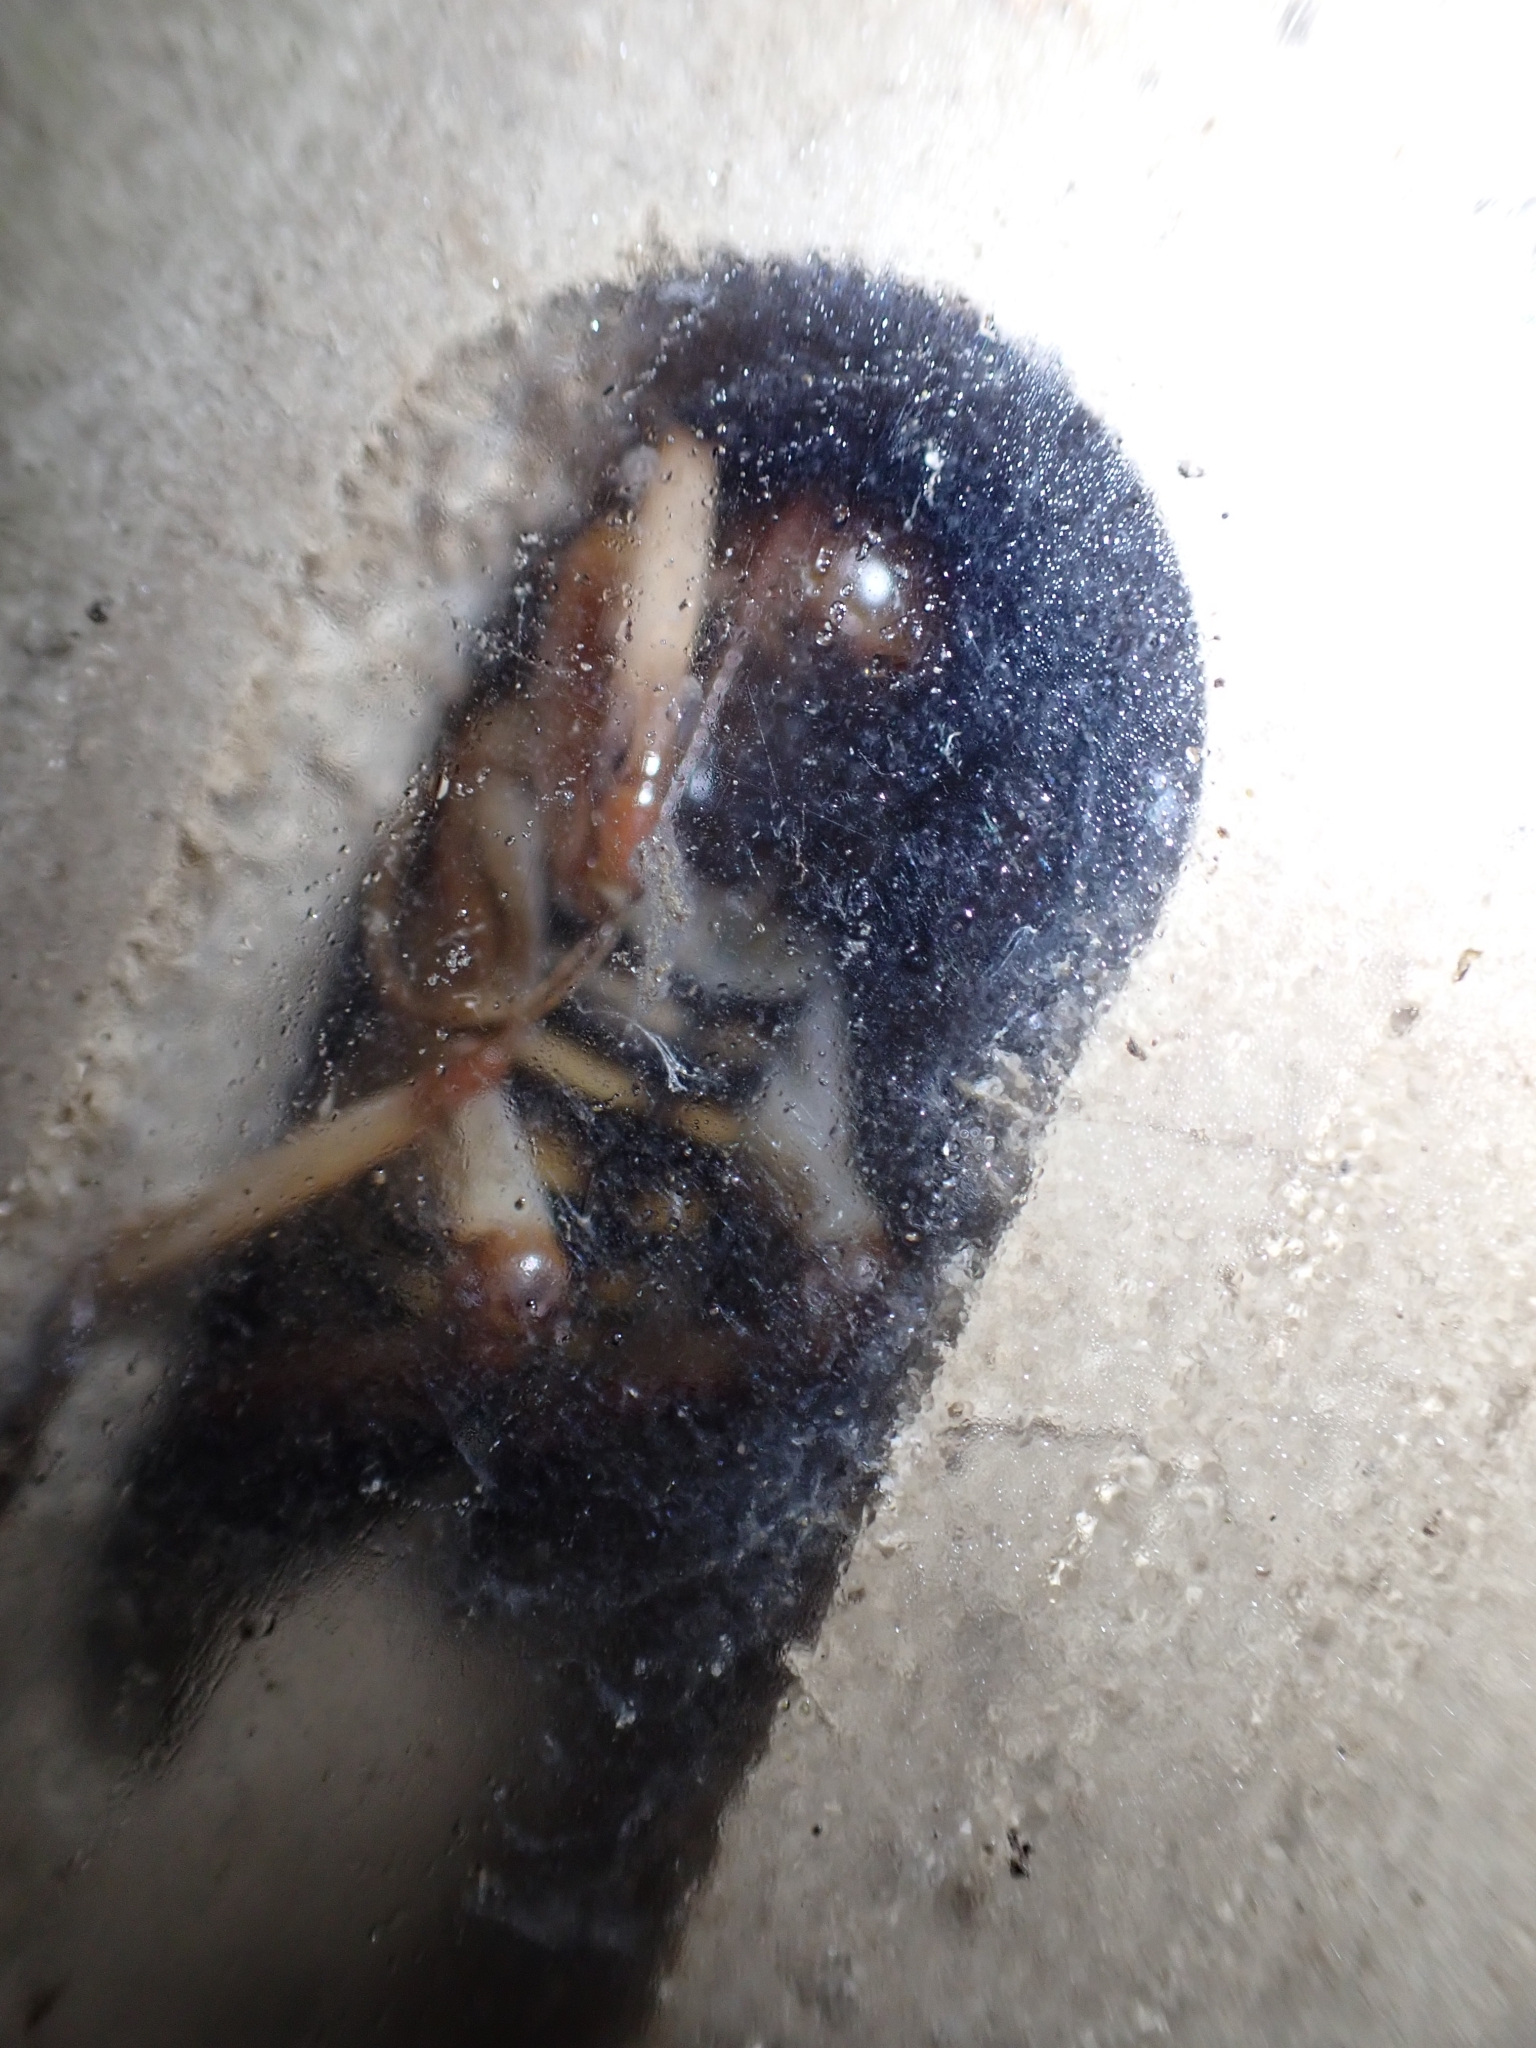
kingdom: Animalia
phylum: Arthropoda
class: Insecta
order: Orthoptera
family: Anostostomatidae
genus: Hemideina
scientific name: Hemideina crassidens
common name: Wellington tree weta
